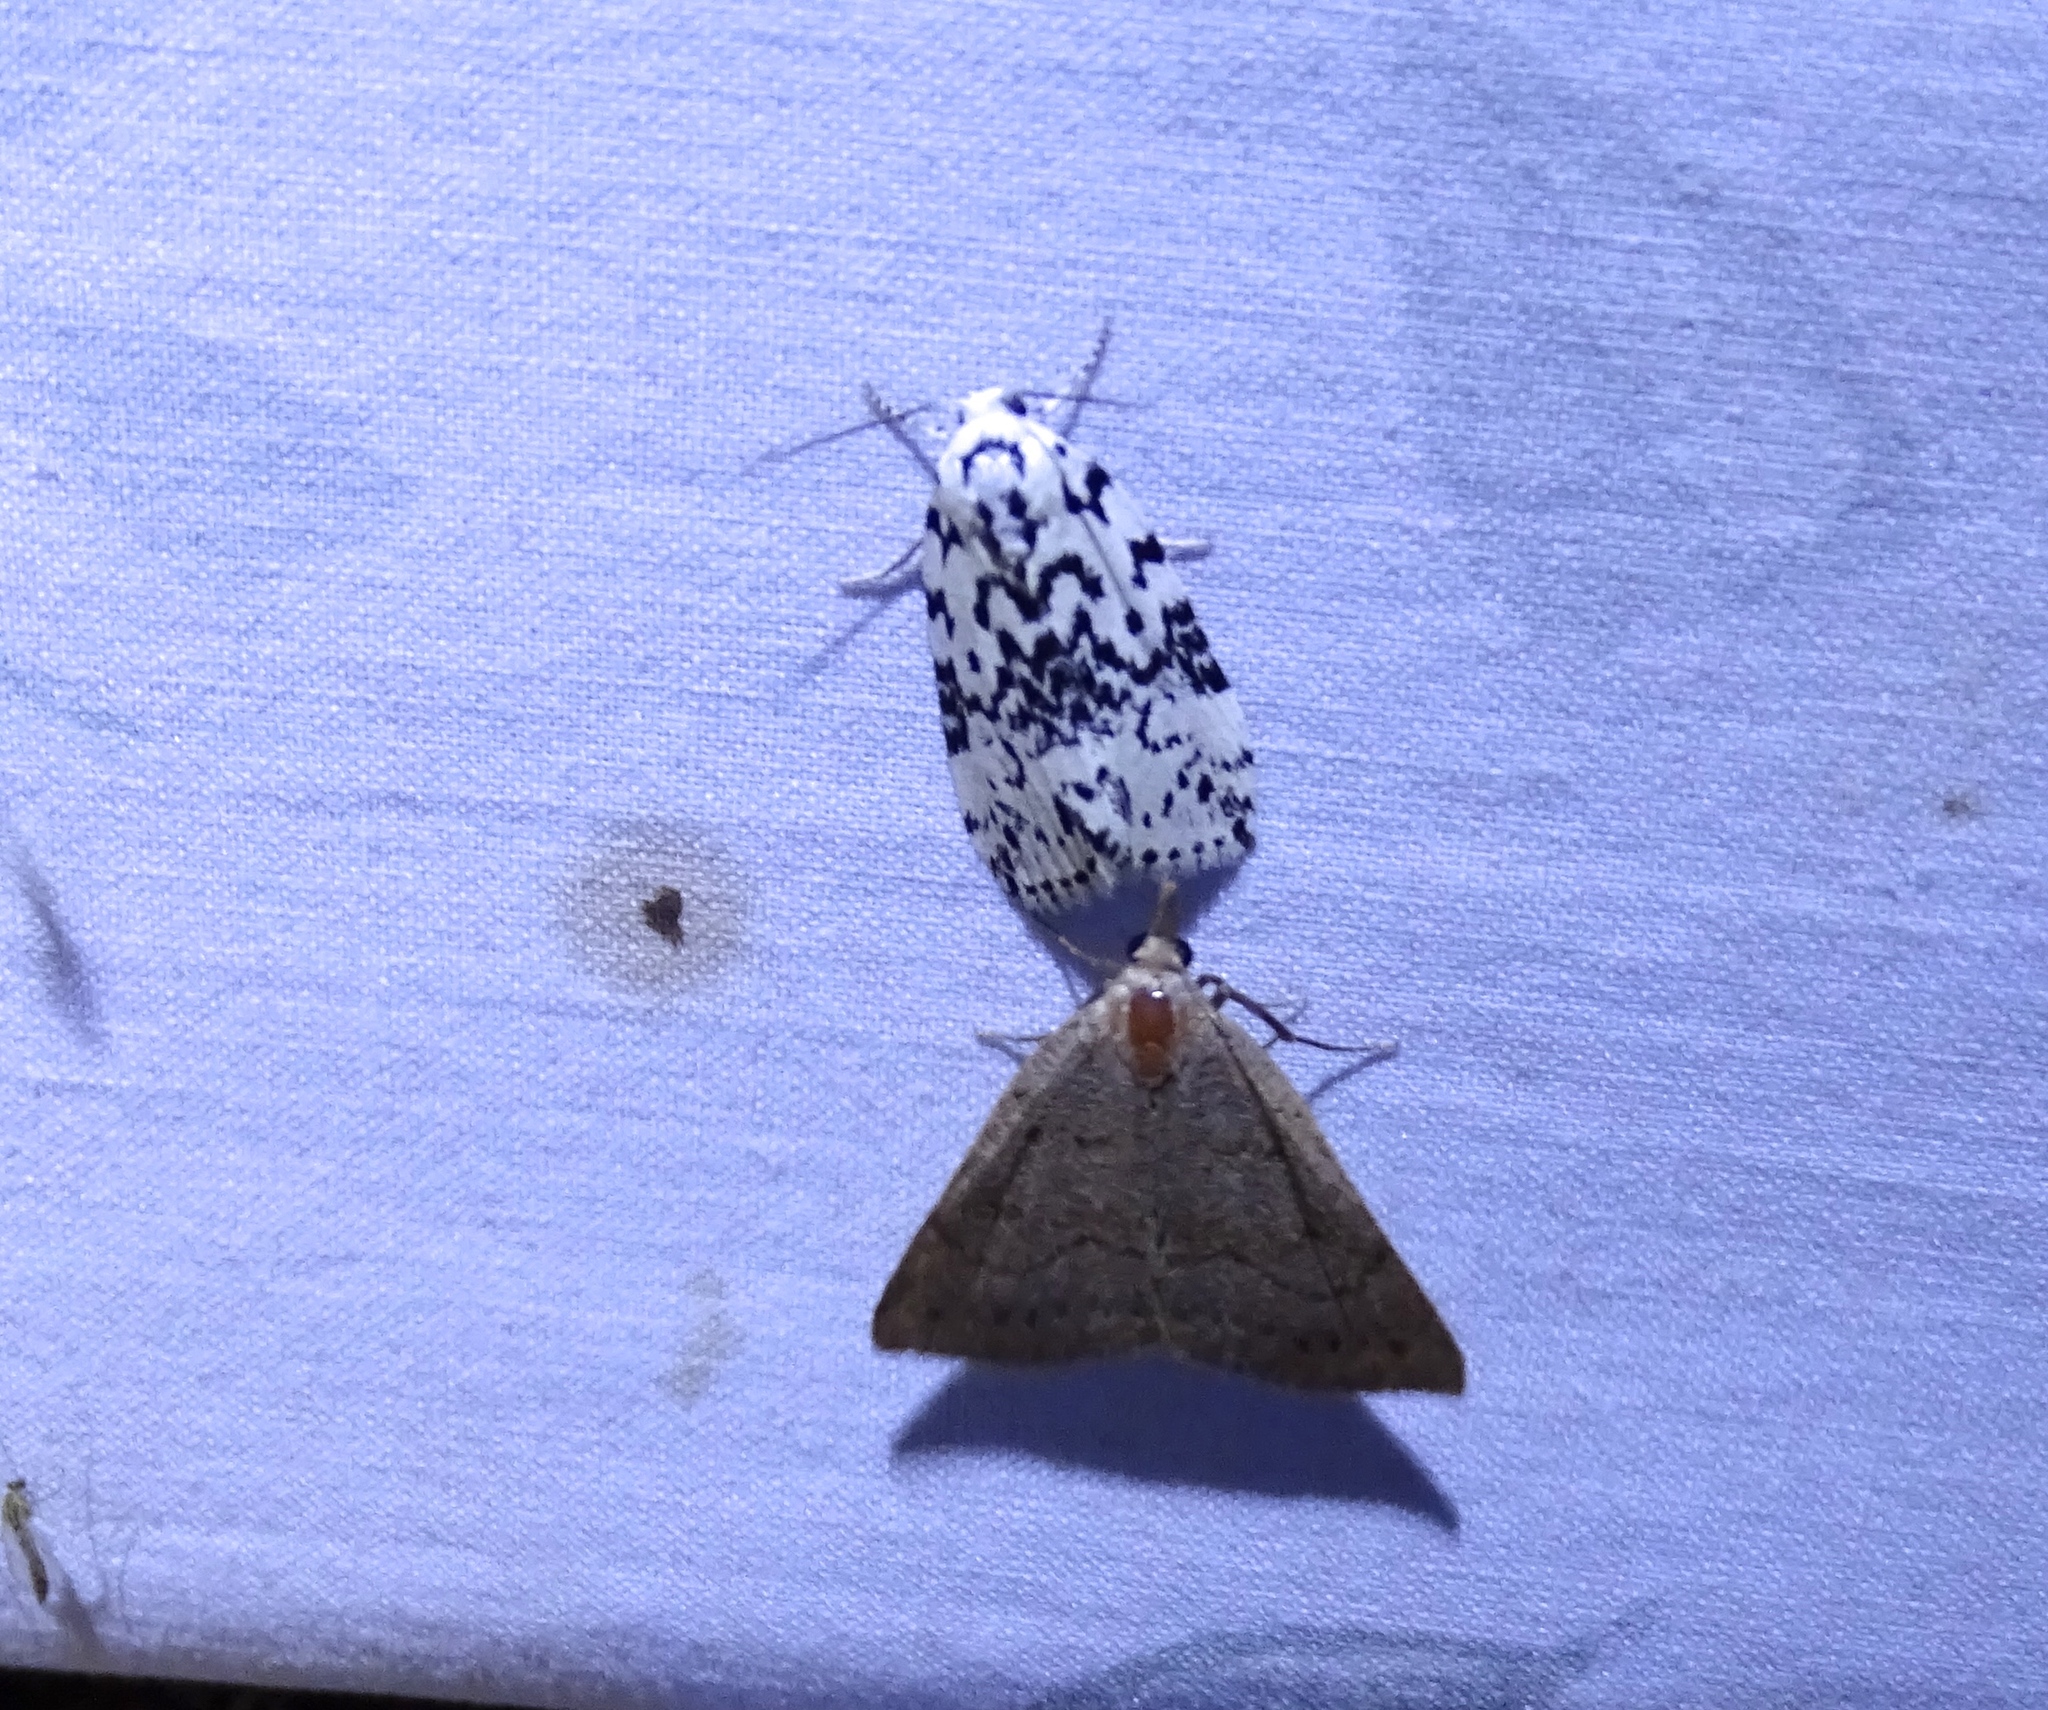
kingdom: Animalia
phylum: Arthropoda
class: Insecta
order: Lepidoptera
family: Noctuidae
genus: Polygrammate
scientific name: Polygrammate hebraeicum
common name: Hebrew moth
